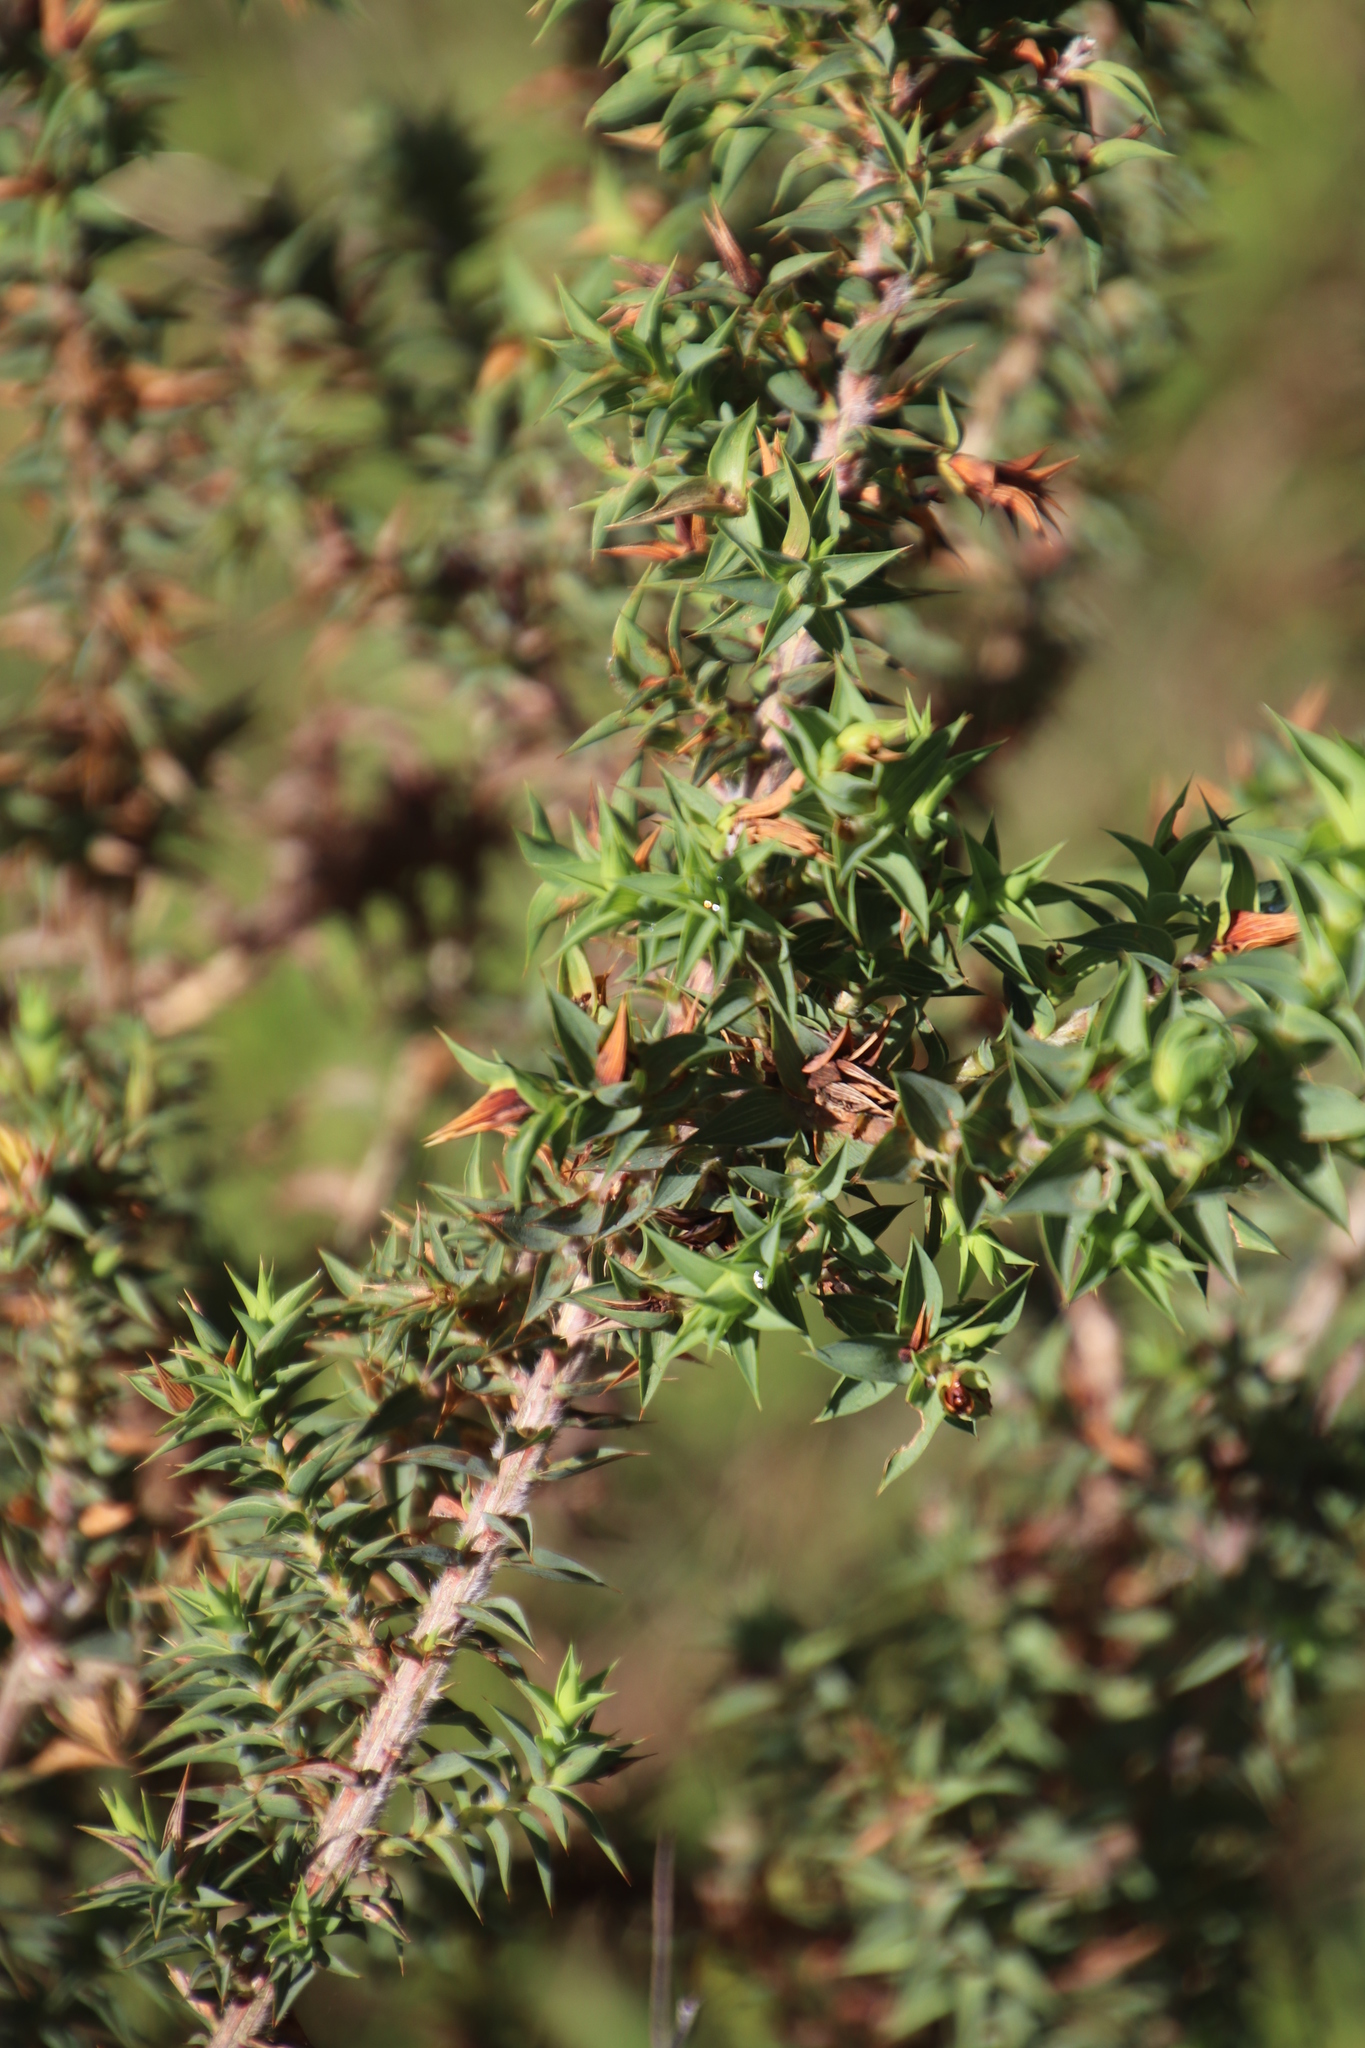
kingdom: Plantae
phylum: Tracheophyta
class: Magnoliopsida
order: Fabales
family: Fabaceae
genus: Aspalathus
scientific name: Aspalathus cordata
